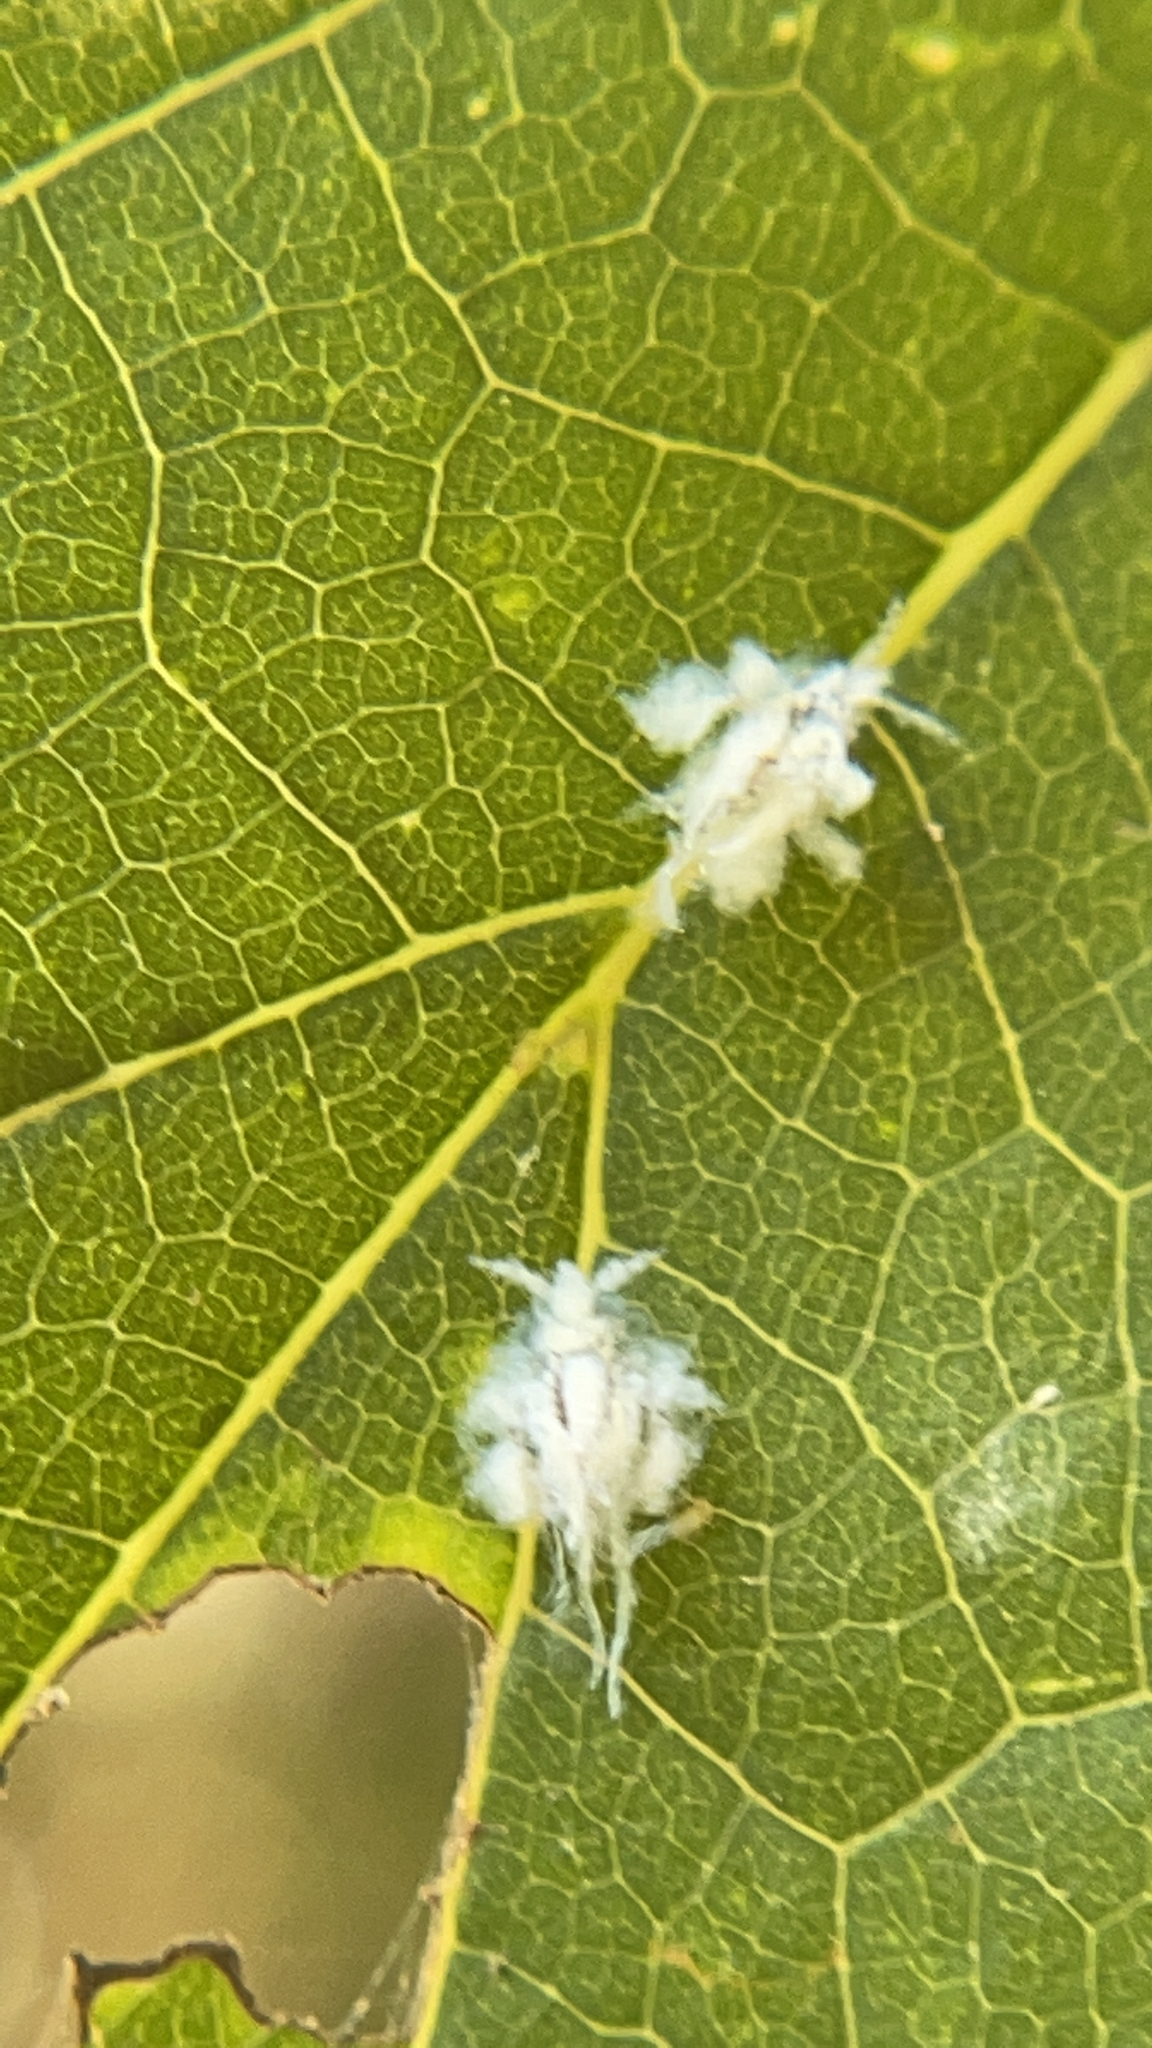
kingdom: Animalia
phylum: Arthropoda
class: Insecta
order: Hemiptera
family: Aphididae
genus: Shivaphis
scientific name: Shivaphis celti
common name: Asian wooly hackberry aphid
